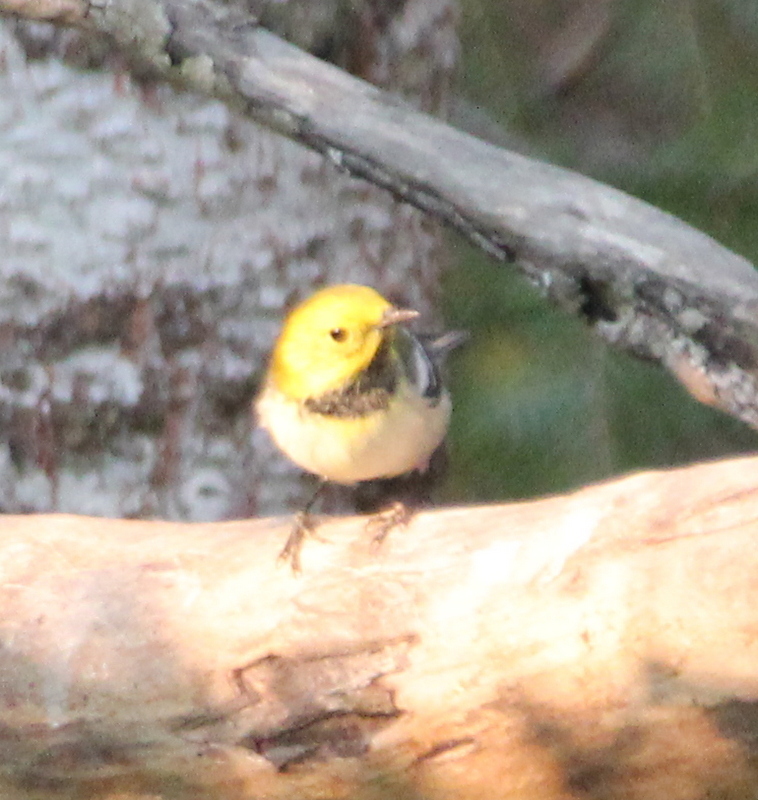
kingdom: Animalia
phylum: Chordata
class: Aves
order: Passeriformes
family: Parulidae
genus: Setophaga
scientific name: Setophaga occidentalis
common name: Hermit warbler
